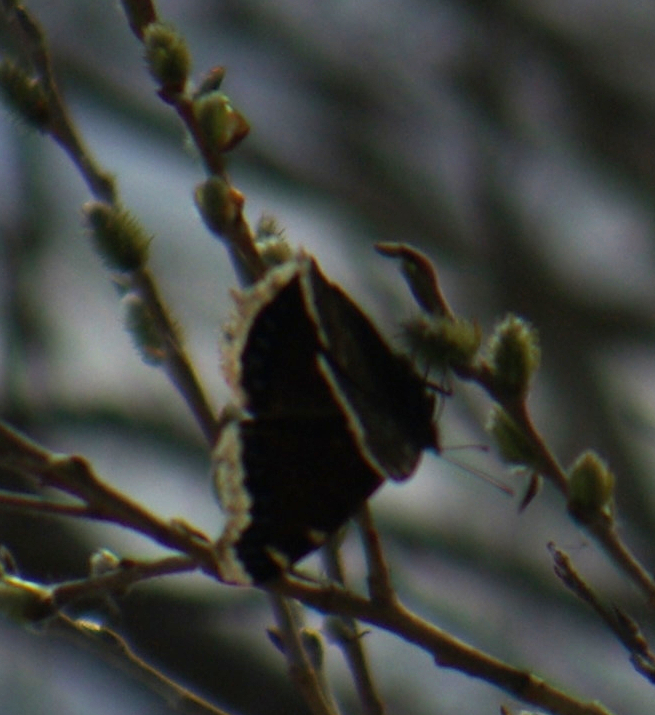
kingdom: Animalia
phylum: Arthropoda
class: Insecta
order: Lepidoptera
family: Nymphalidae
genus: Nymphalis
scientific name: Nymphalis antiopa
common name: Camberwell beauty
